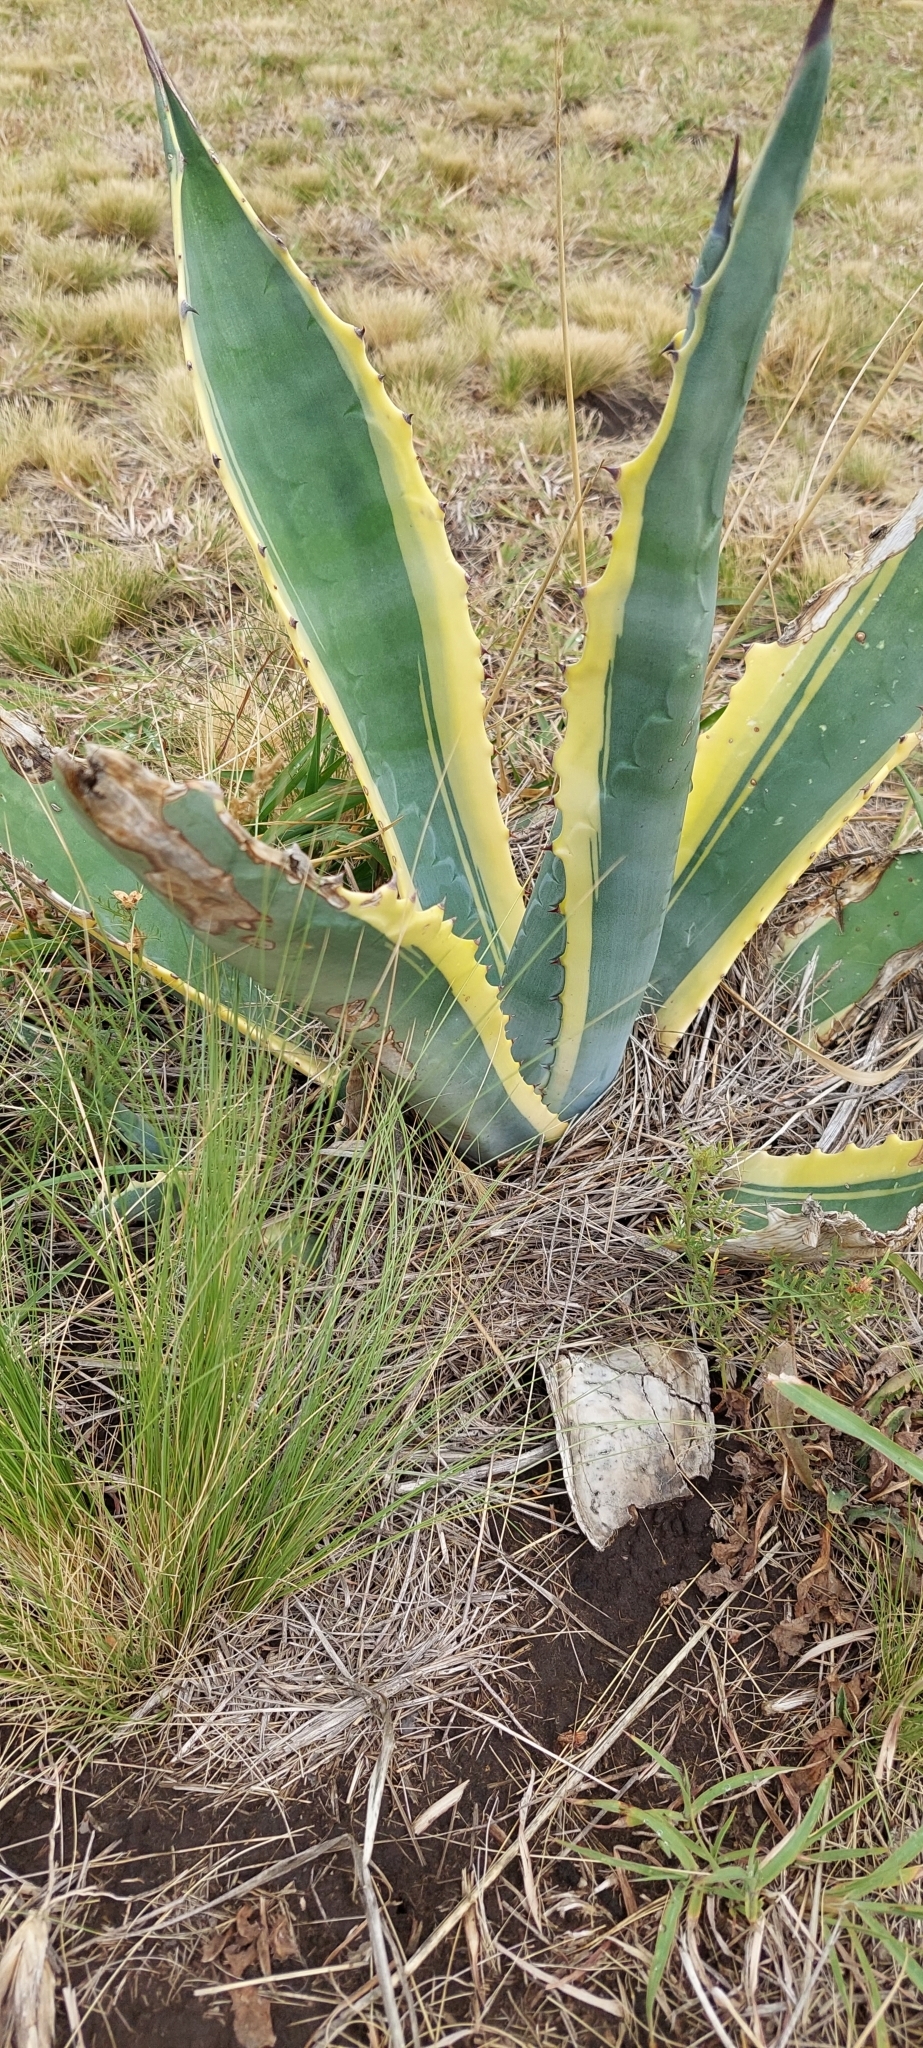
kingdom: Plantae
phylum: Tracheophyta
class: Liliopsida
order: Asparagales
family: Asparagaceae
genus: Agave
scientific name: Agave americana
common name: Centuryplant
